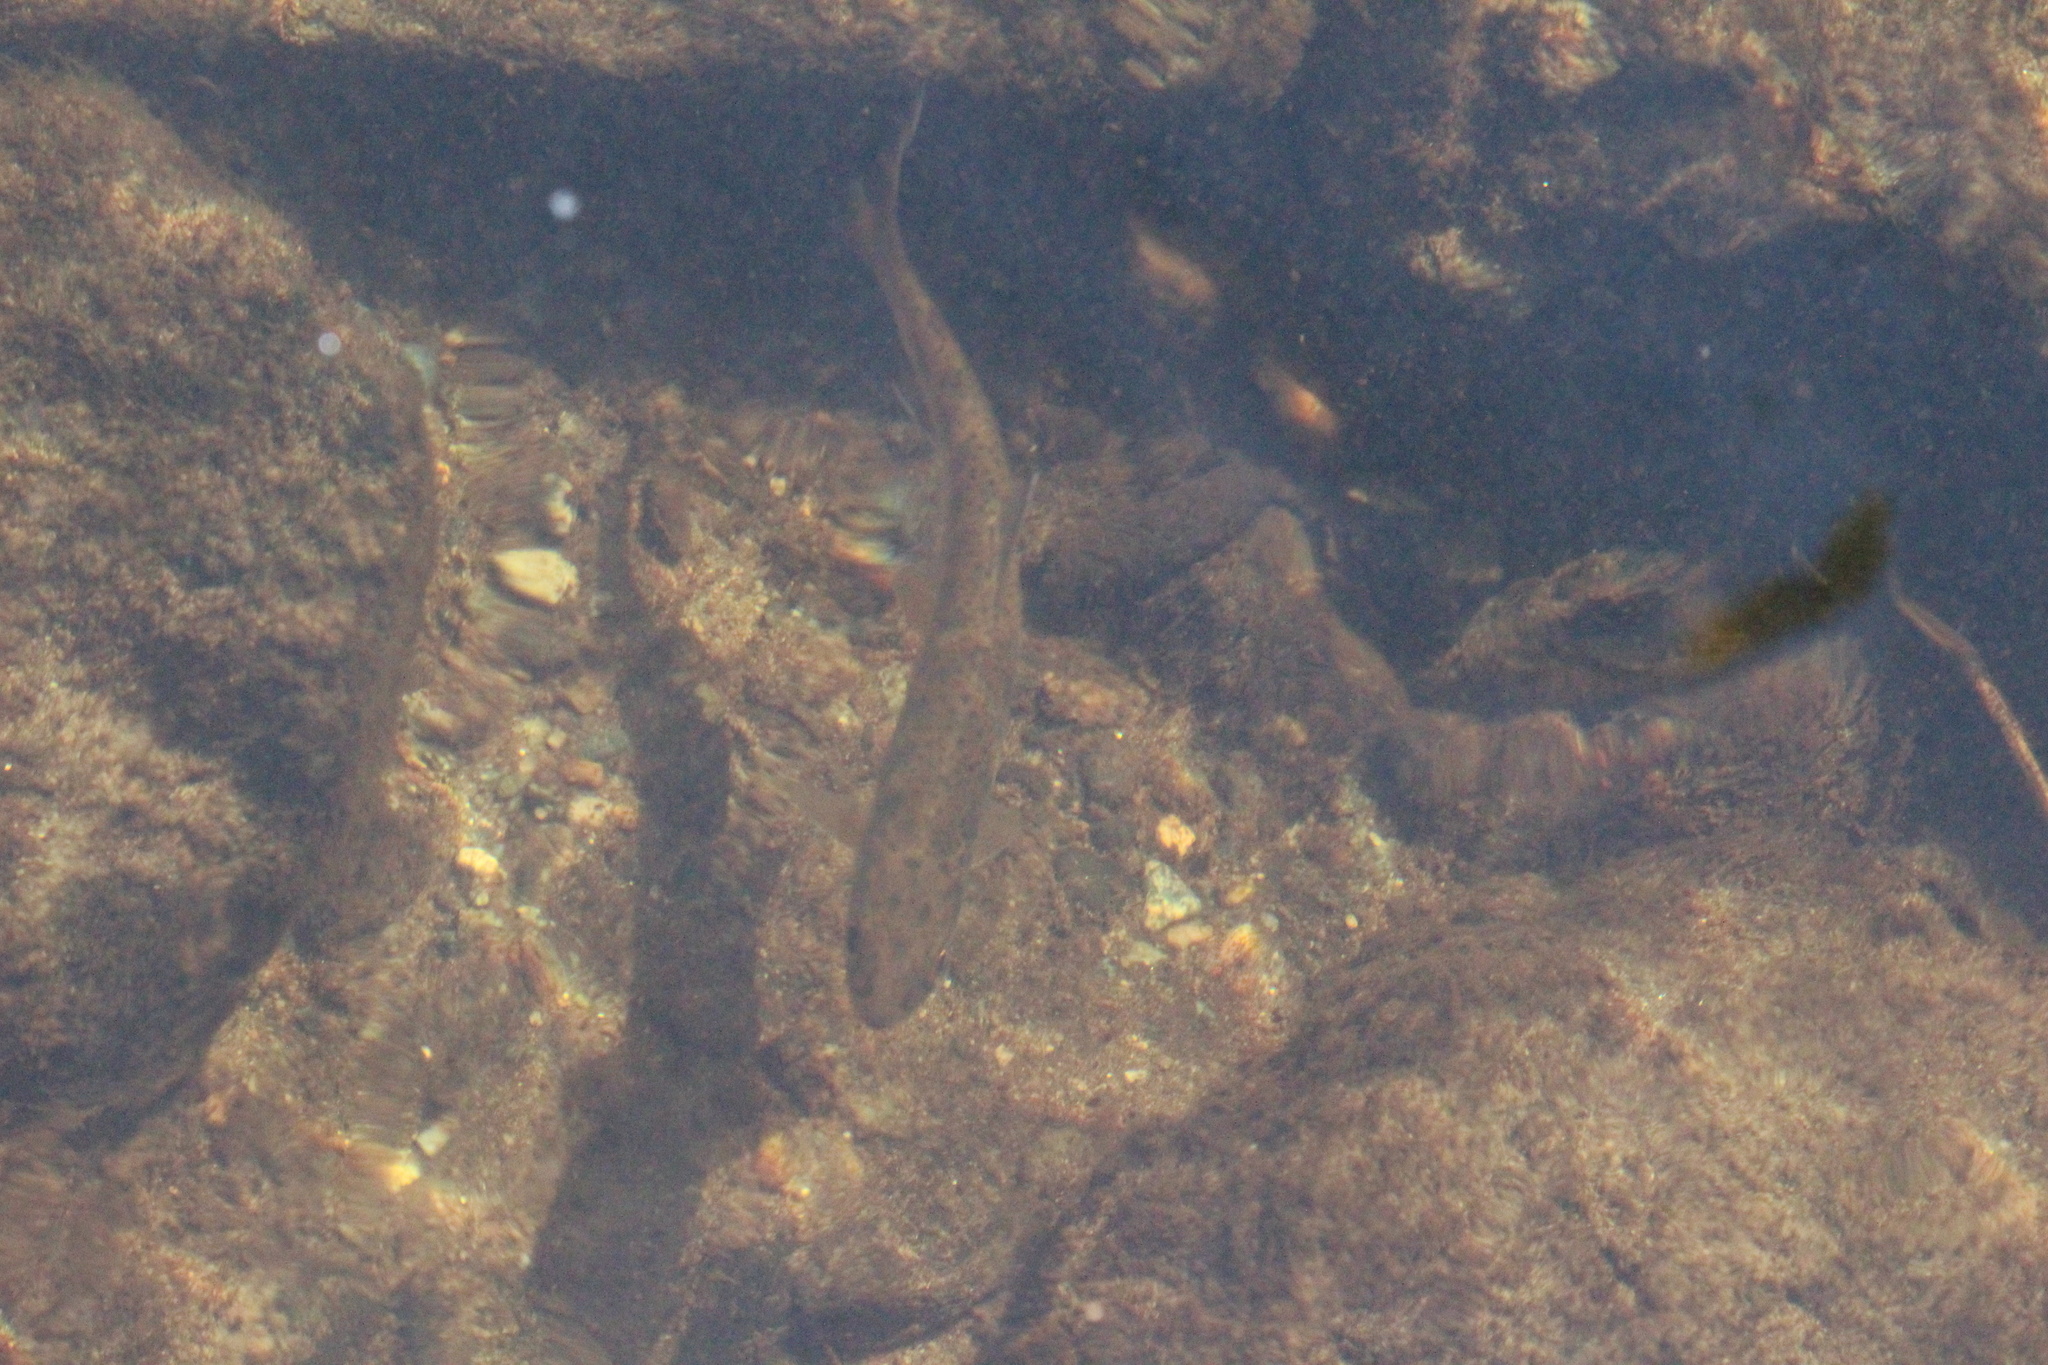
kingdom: Animalia
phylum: Chordata
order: Salmoniformes
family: Salmonidae
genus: Oncorhynchus
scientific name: Oncorhynchus mykiss
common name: Rainbow trout
